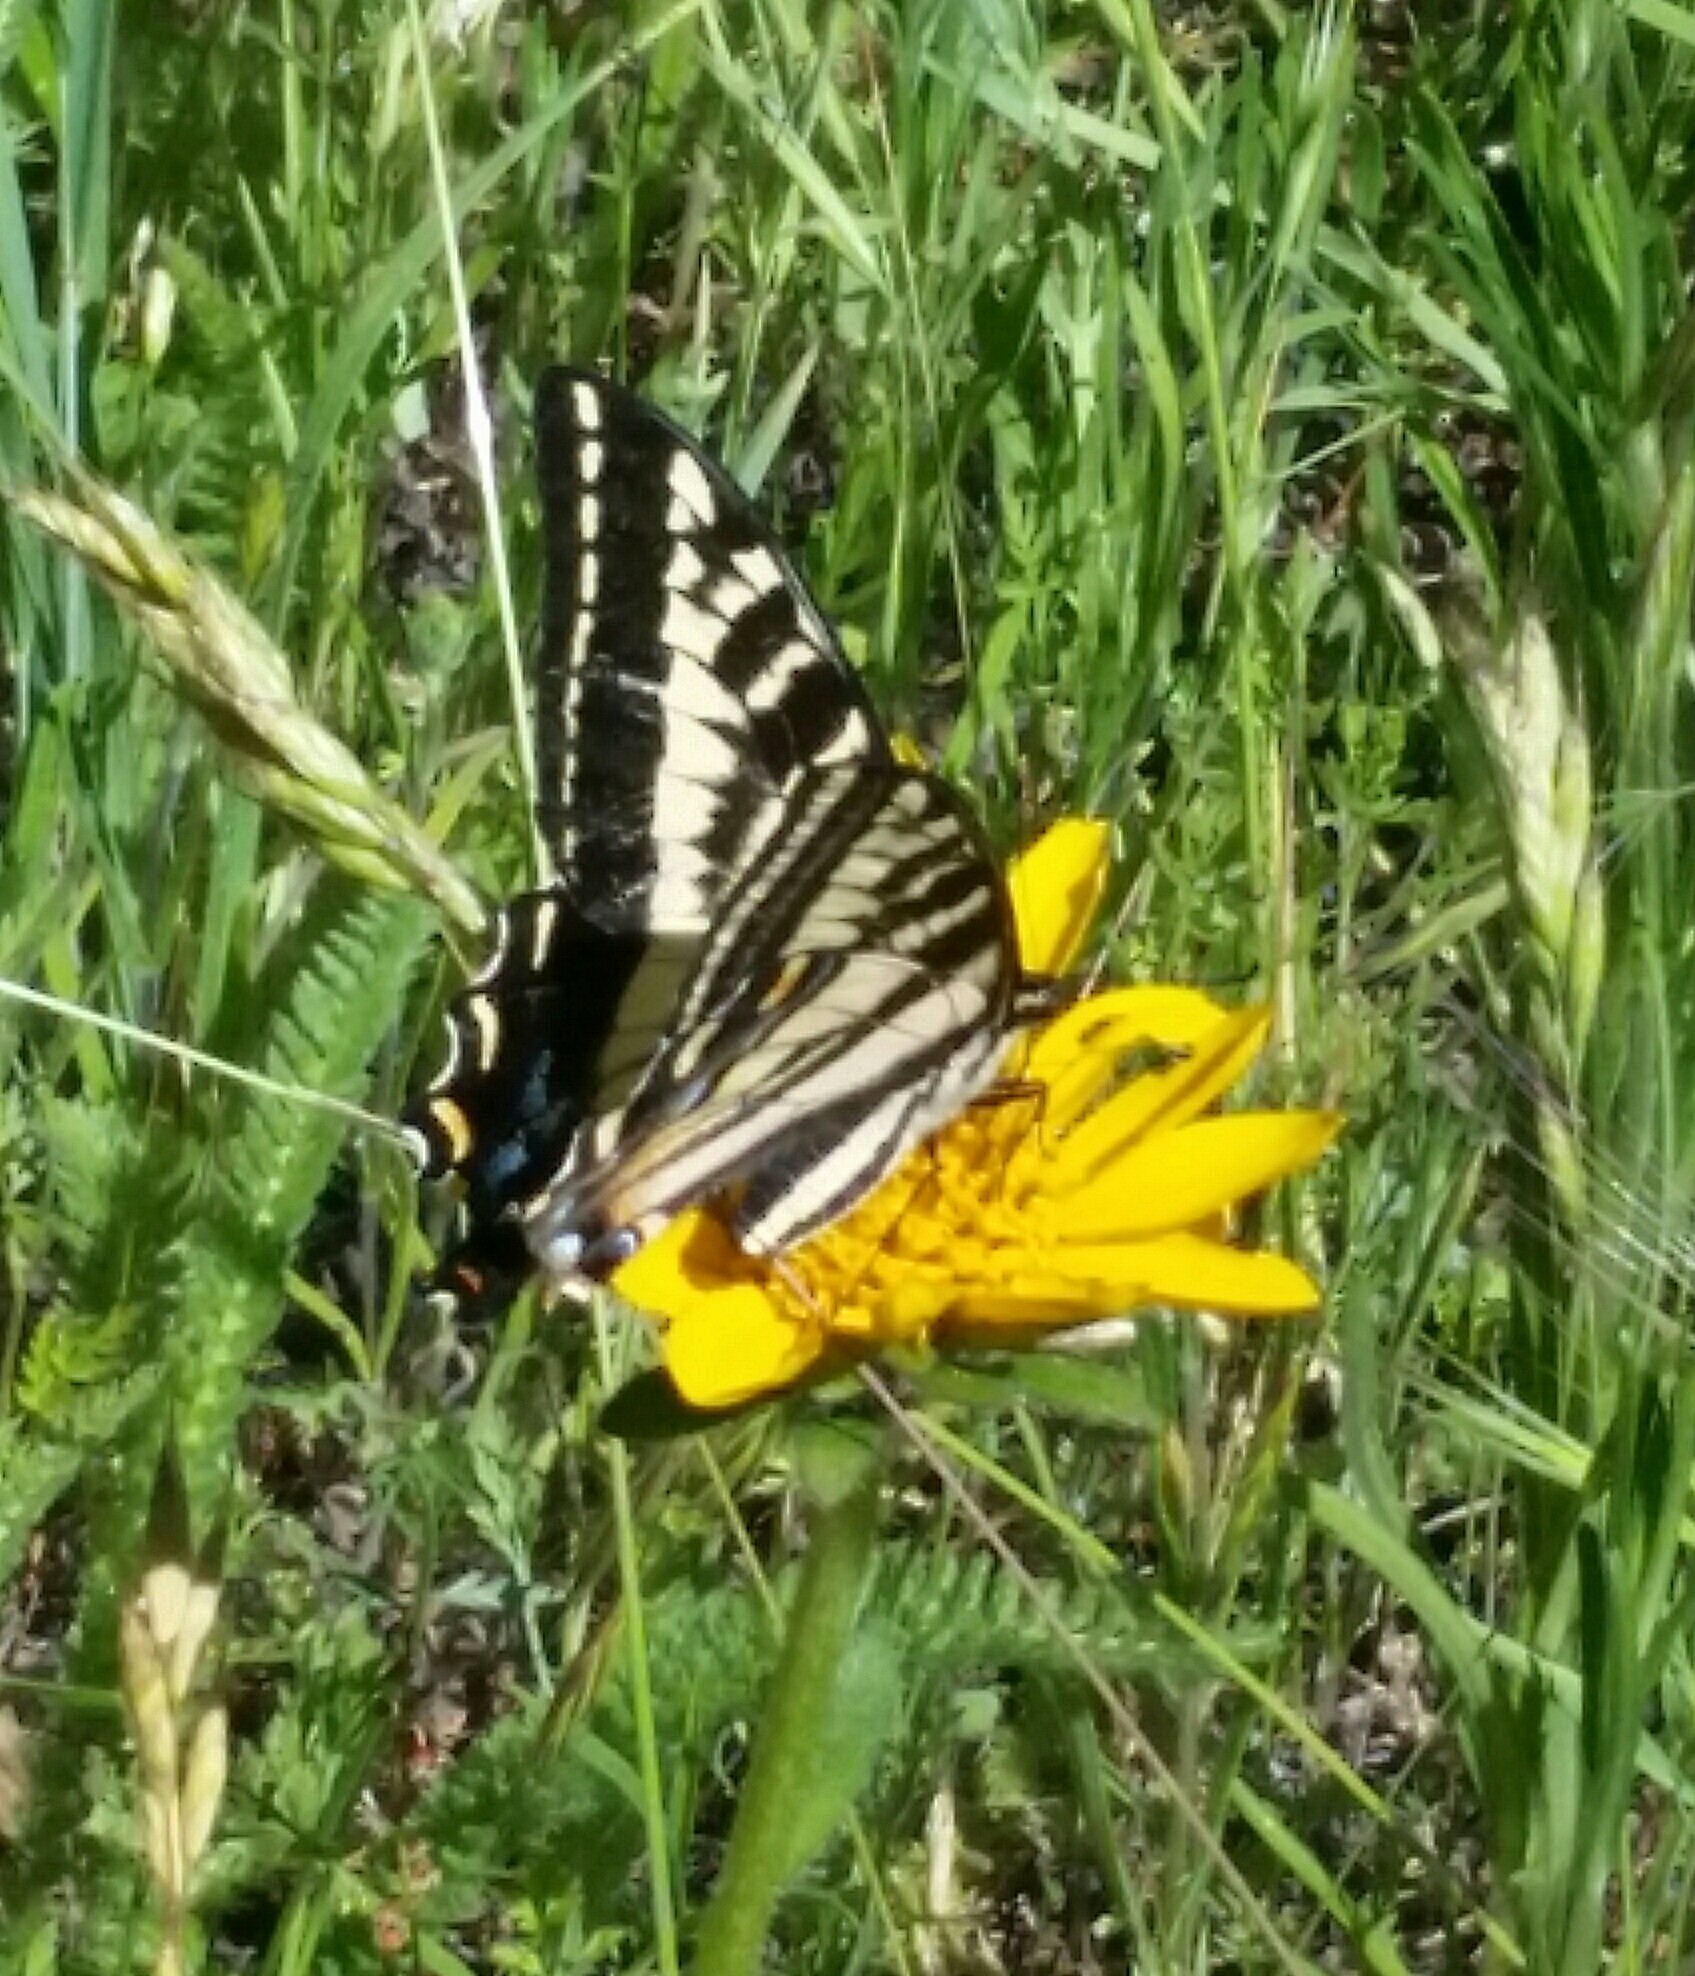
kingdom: Animalia
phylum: Arthropoda
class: Insecta
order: Lepidoptera
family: Papilionidae
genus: Papilio
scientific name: Papilio eurymedon
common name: Pale tiger swallowtail
